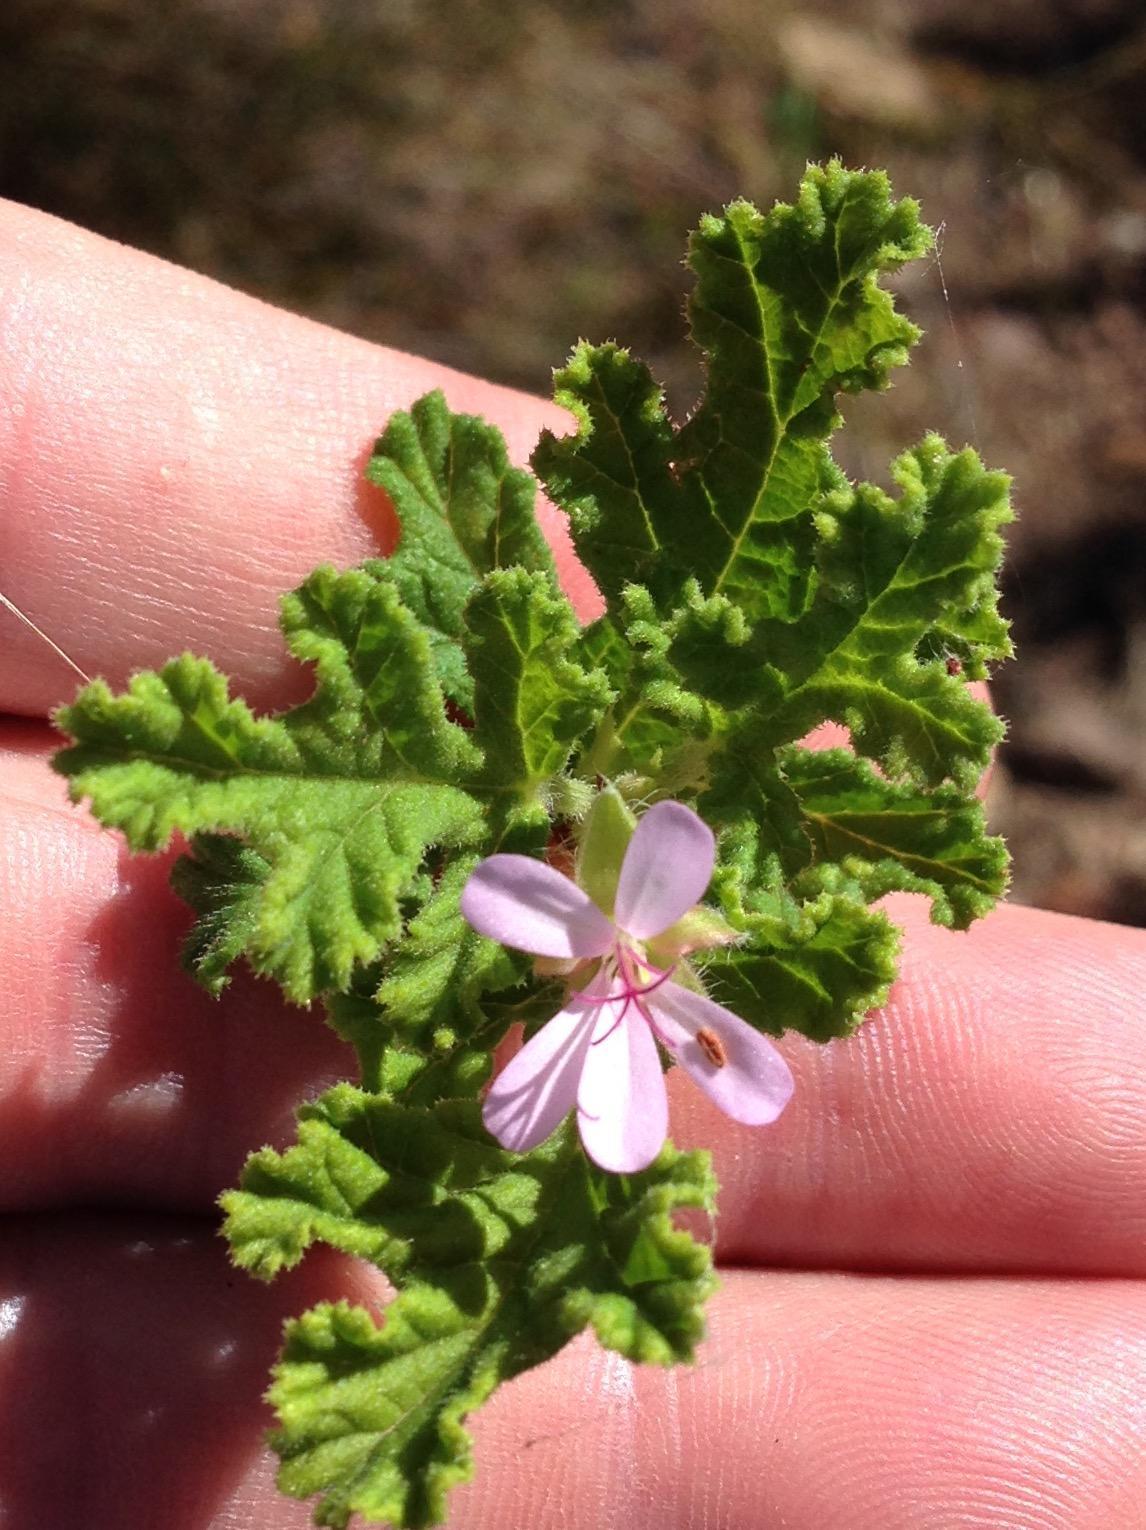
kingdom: Plantae
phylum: Tracheophyta
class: Magnoliopsida
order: Geraniales
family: Geraniaceae
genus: Pelargonium
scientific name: Pelargonium panduriforme
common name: Oakleaf garden geranium
